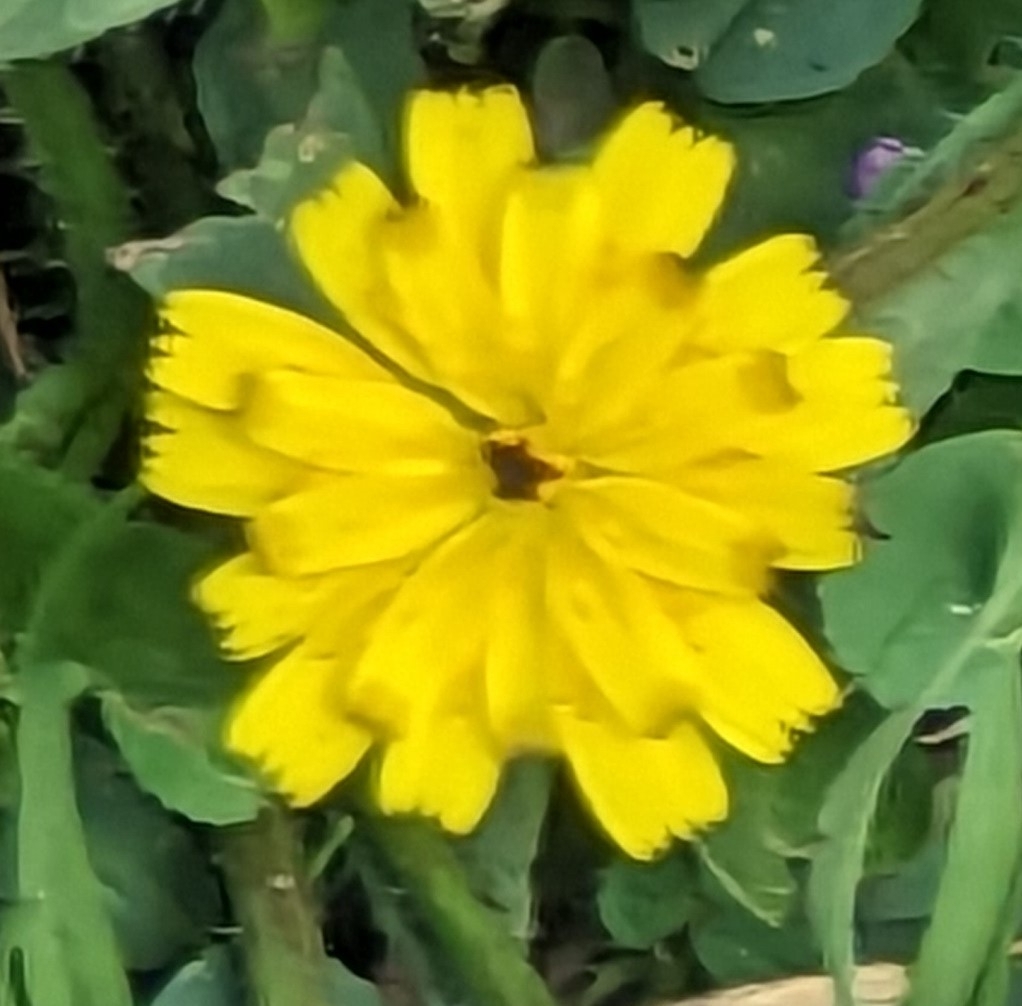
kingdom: Plantae
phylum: Tracheophyta
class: Magnoliopsida
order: Asterales
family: Asteraceae
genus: Hedypnois
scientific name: Hedypnois rhagadioloides
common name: Cretan weed
